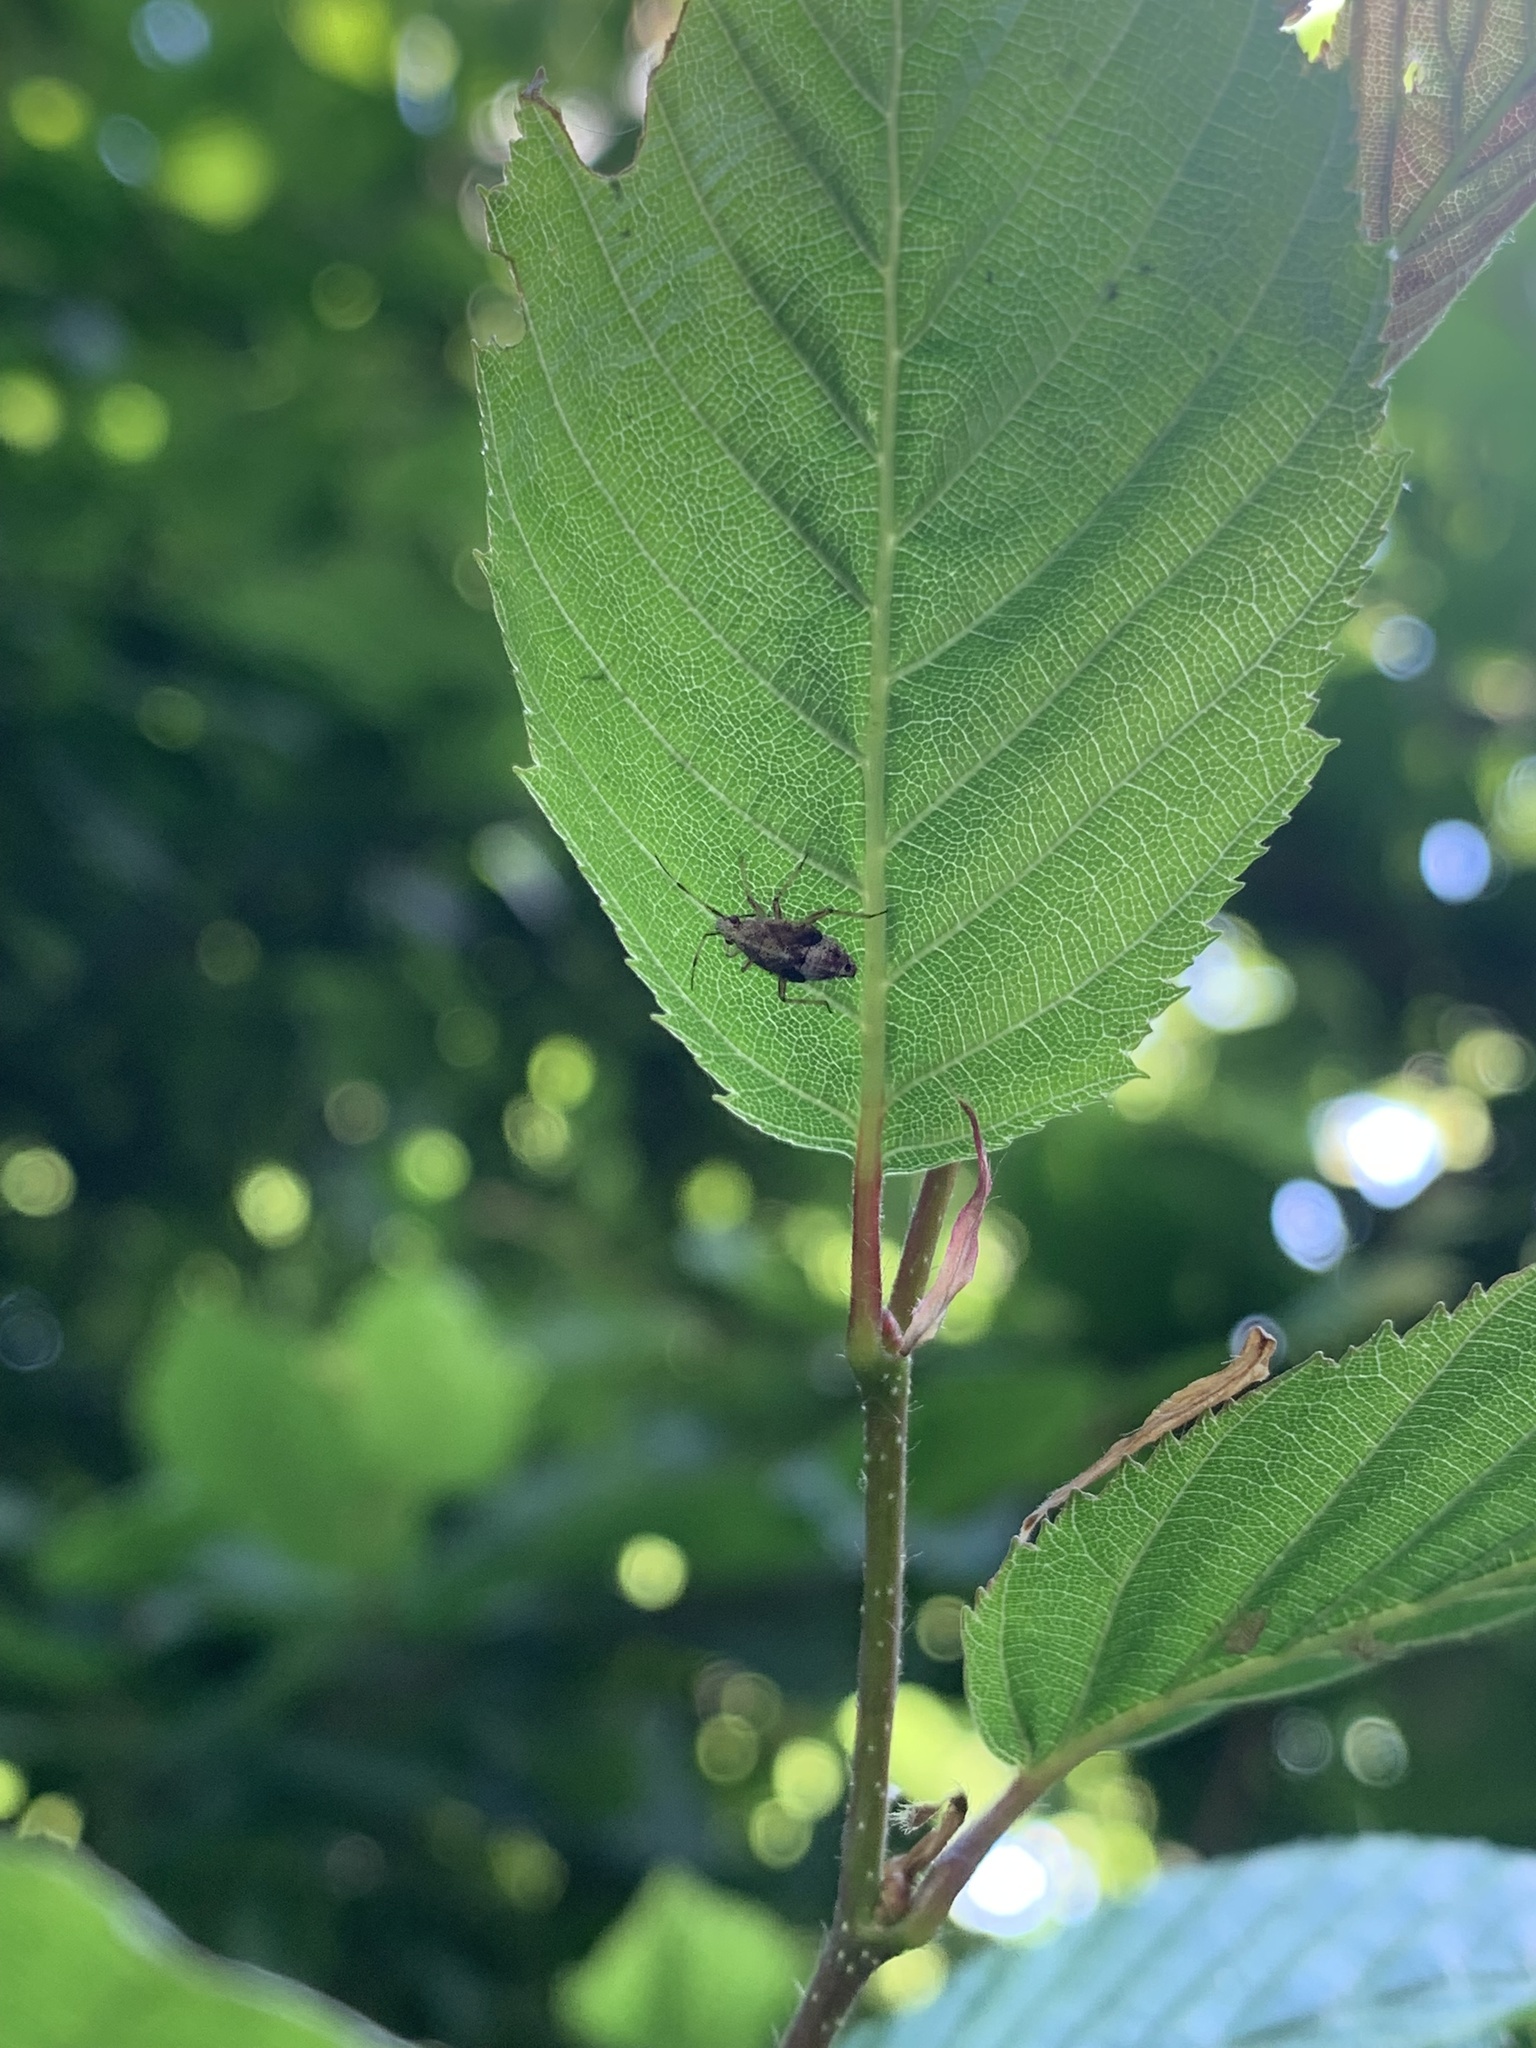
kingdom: Animalia
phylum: Arthropoda
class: Insecta
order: Hemiptera
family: Miridae
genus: Deraeocoris
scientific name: Deraeocoris flavilinea
